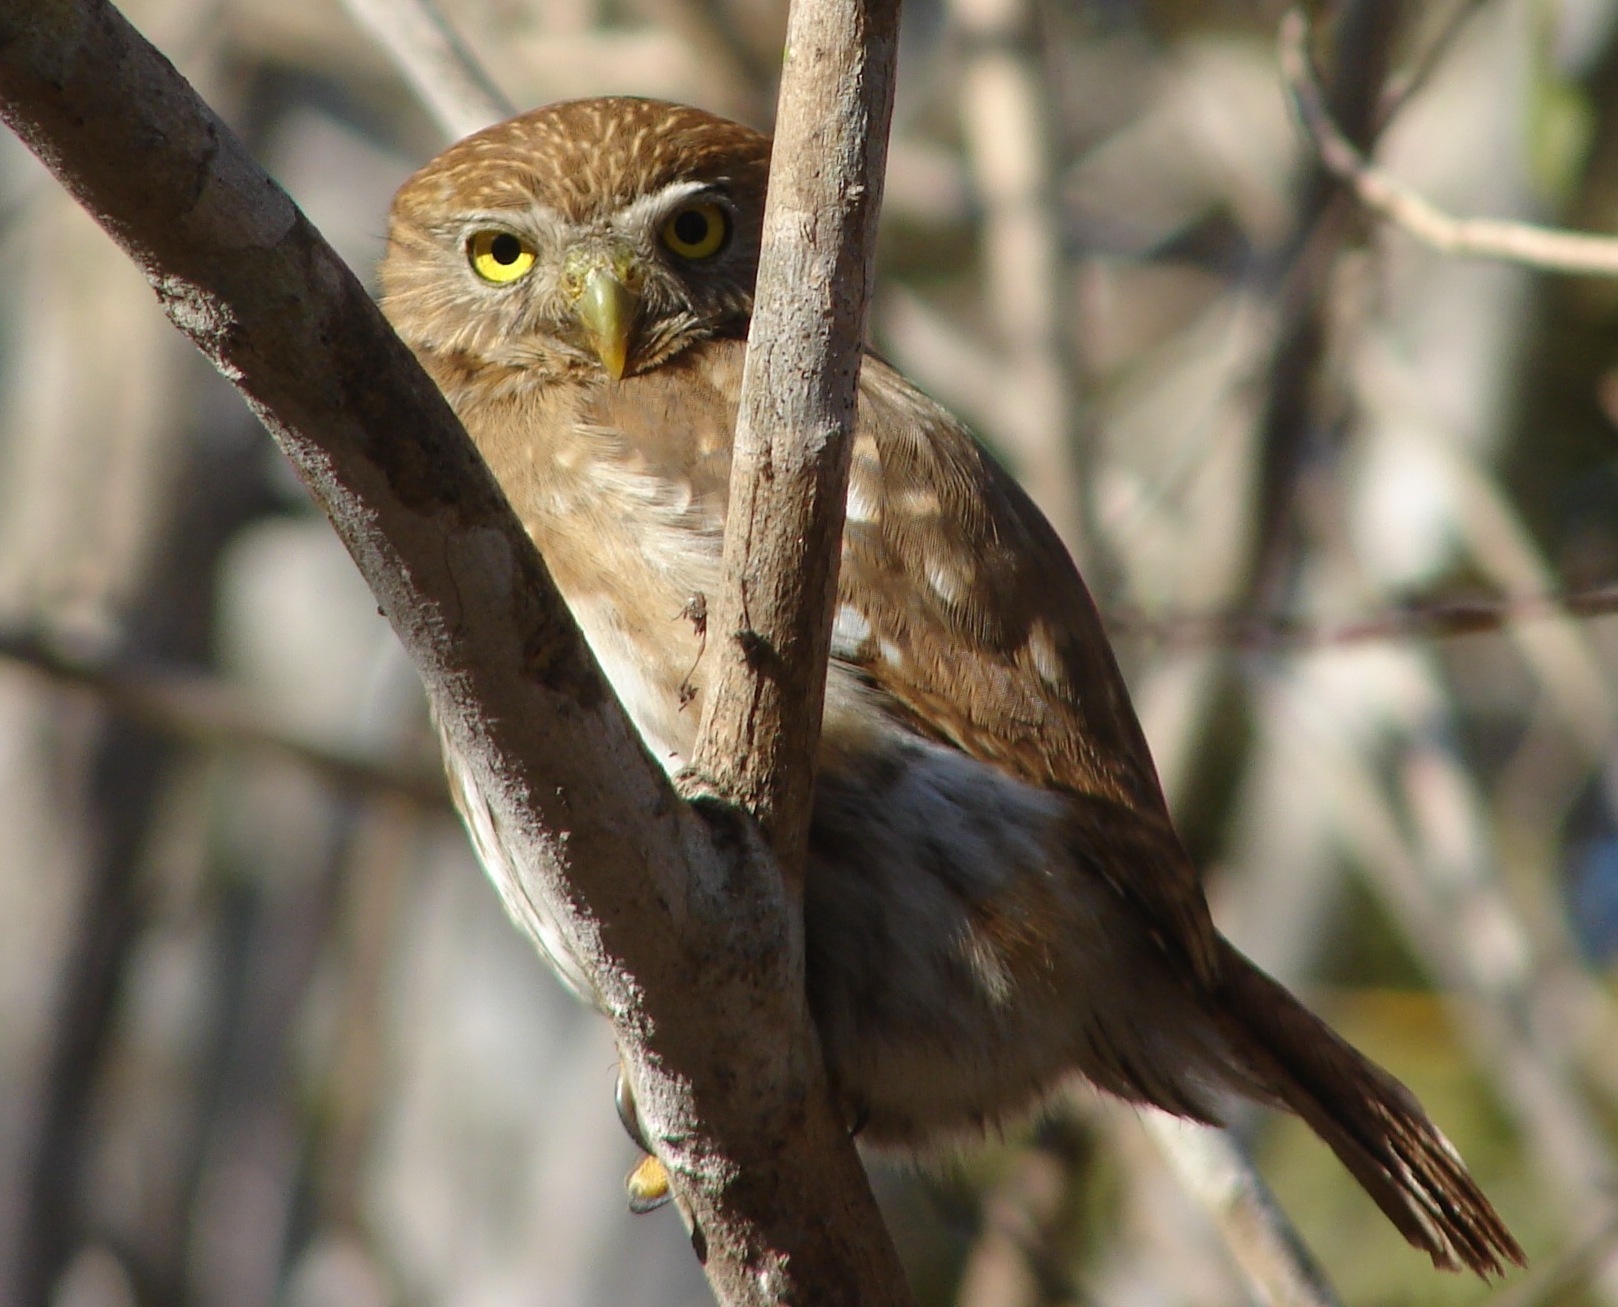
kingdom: Animalia
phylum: Chordata
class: Aves
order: Strigiformes
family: Strigidae
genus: Glaucidium
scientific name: Glaucidium brasilianum
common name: Ferruginous pygmy-owl
